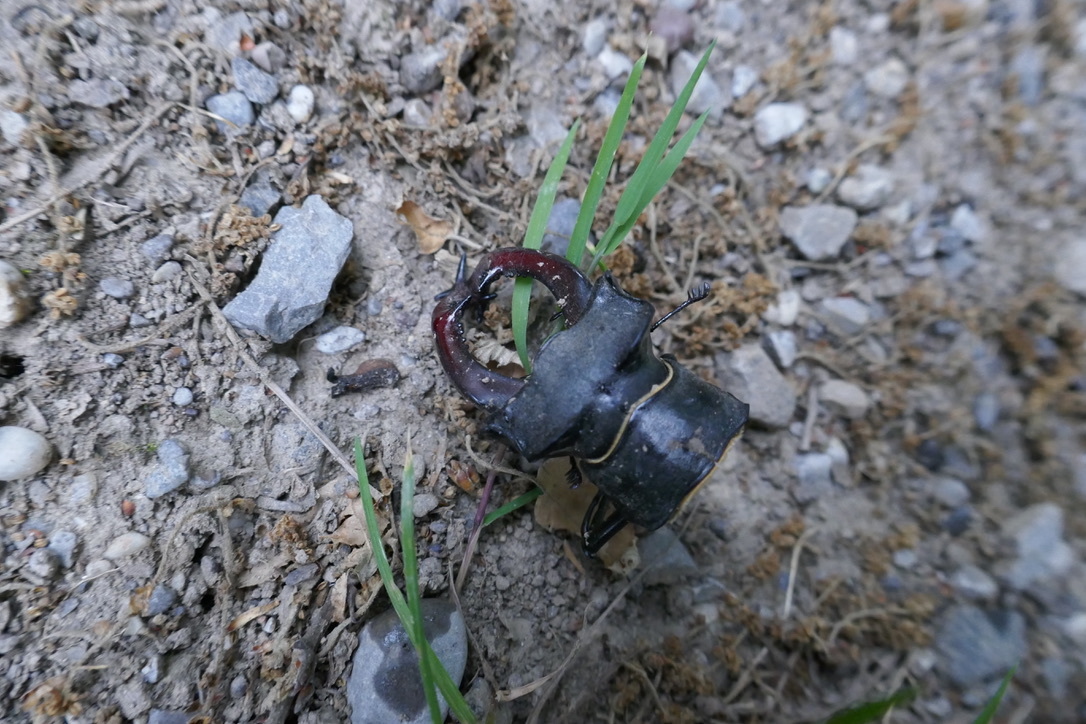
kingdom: Animalia
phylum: Arthropoda
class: Insecta
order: Coleoptera
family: Lucanidae
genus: Lucanus
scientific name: Lucanus cervus
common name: Stag beetle
